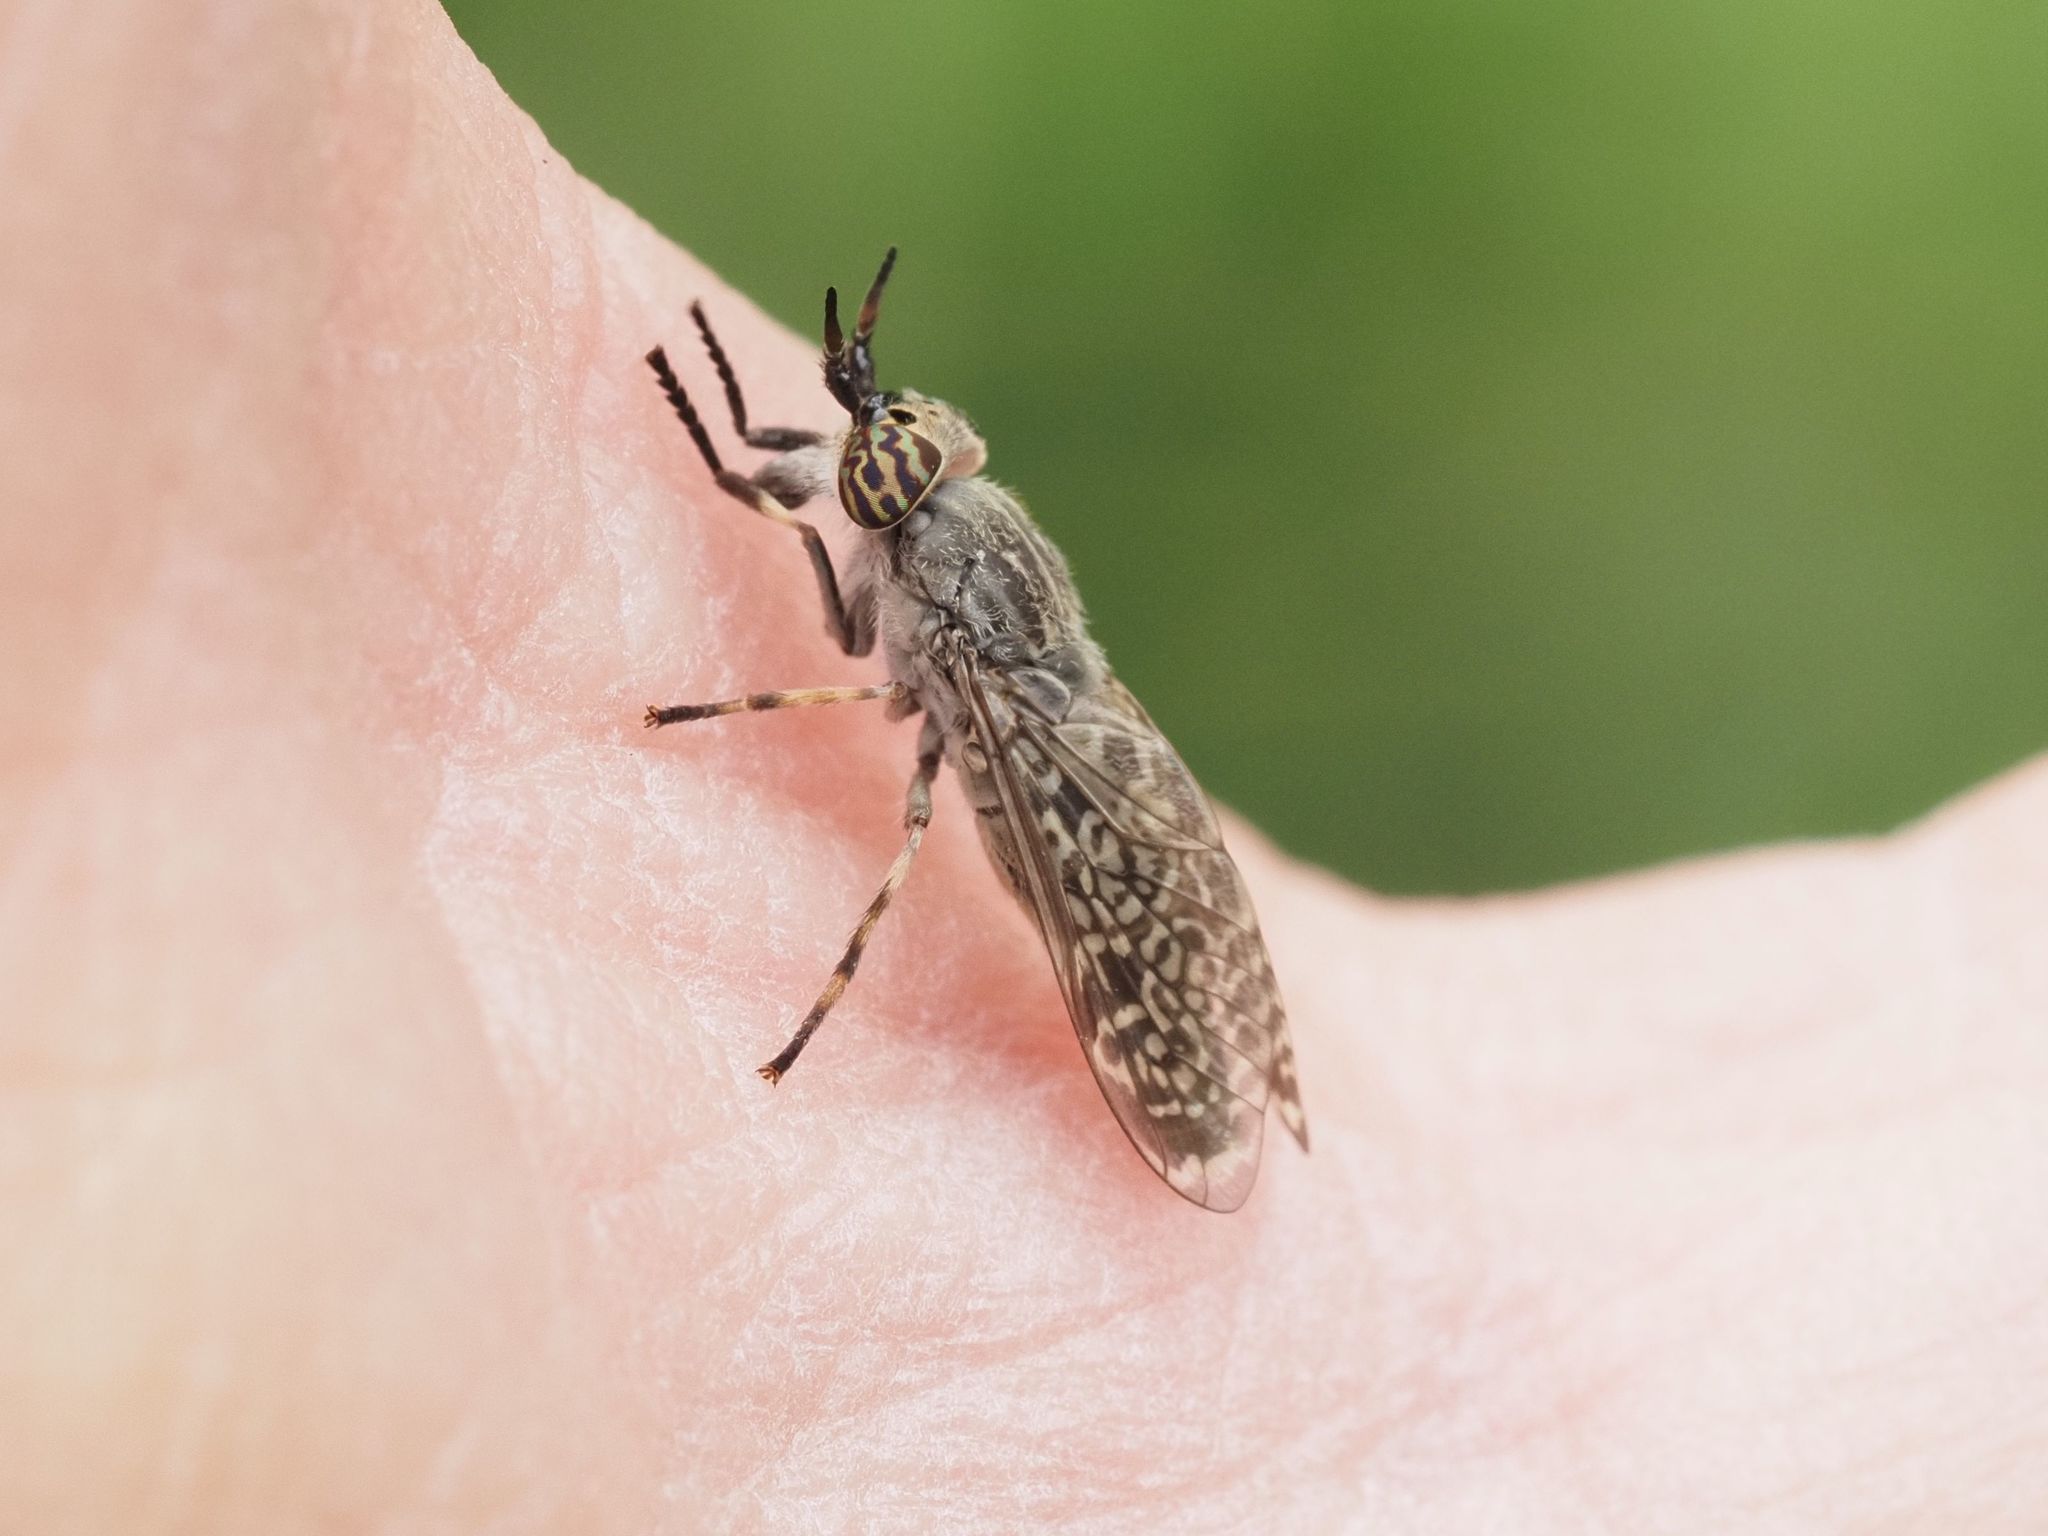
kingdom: Animalia
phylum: Arthropoda
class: Insecta
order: Diptera
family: Tabanidae
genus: Haematopota
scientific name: Haematopota pluvialis
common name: Common horse fly
